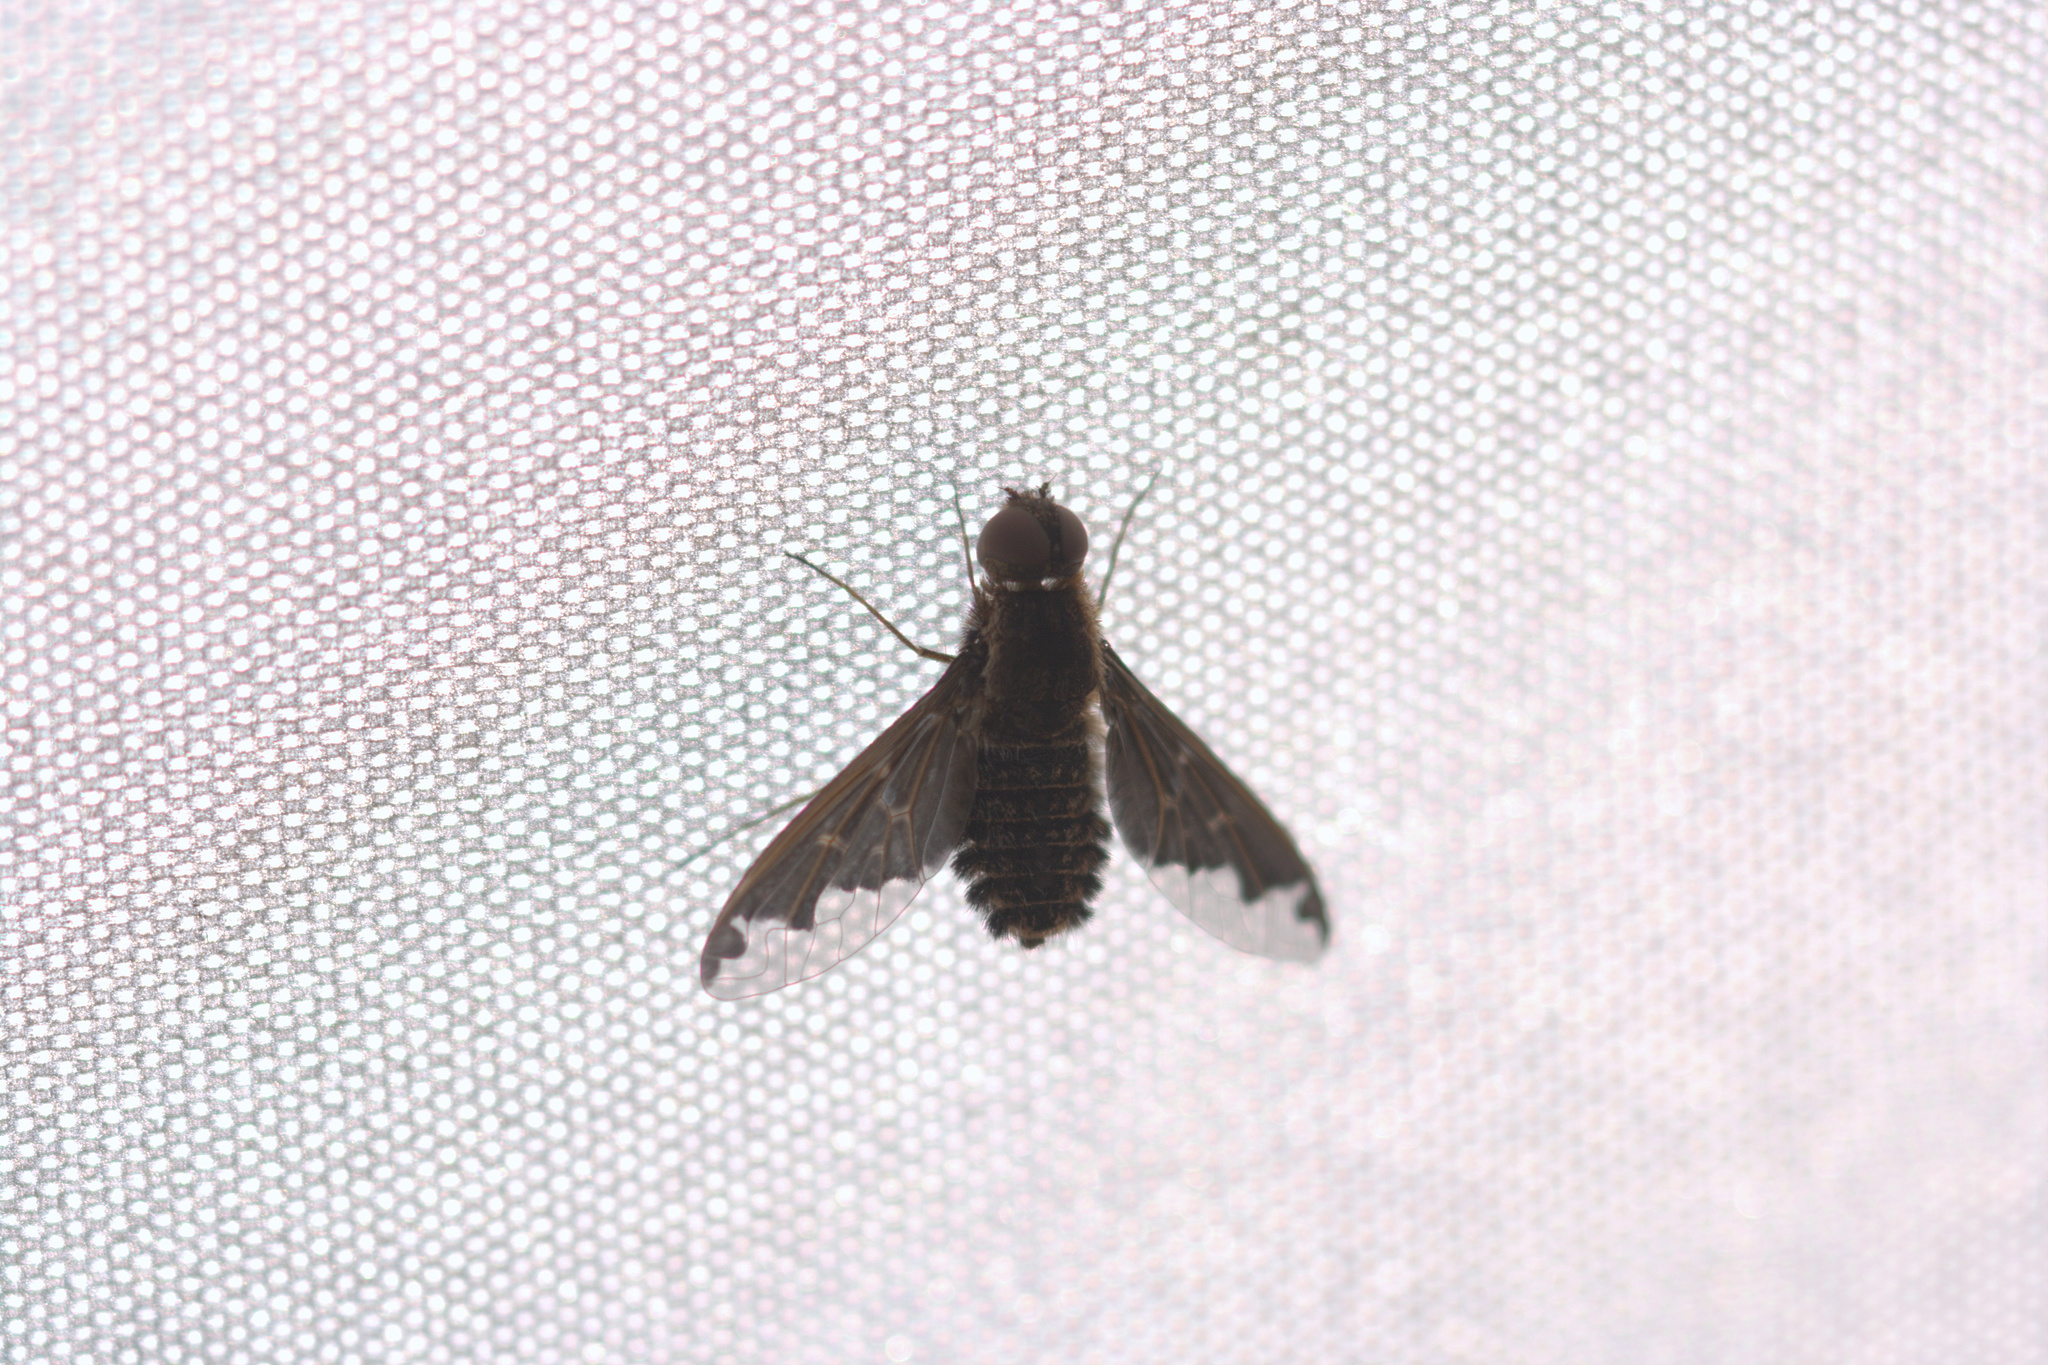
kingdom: Animalia
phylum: Arthropoda
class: Insecta
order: Diptera
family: Bombyliidae
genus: Hemipenthes
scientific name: Hemipenthes sinuosus
